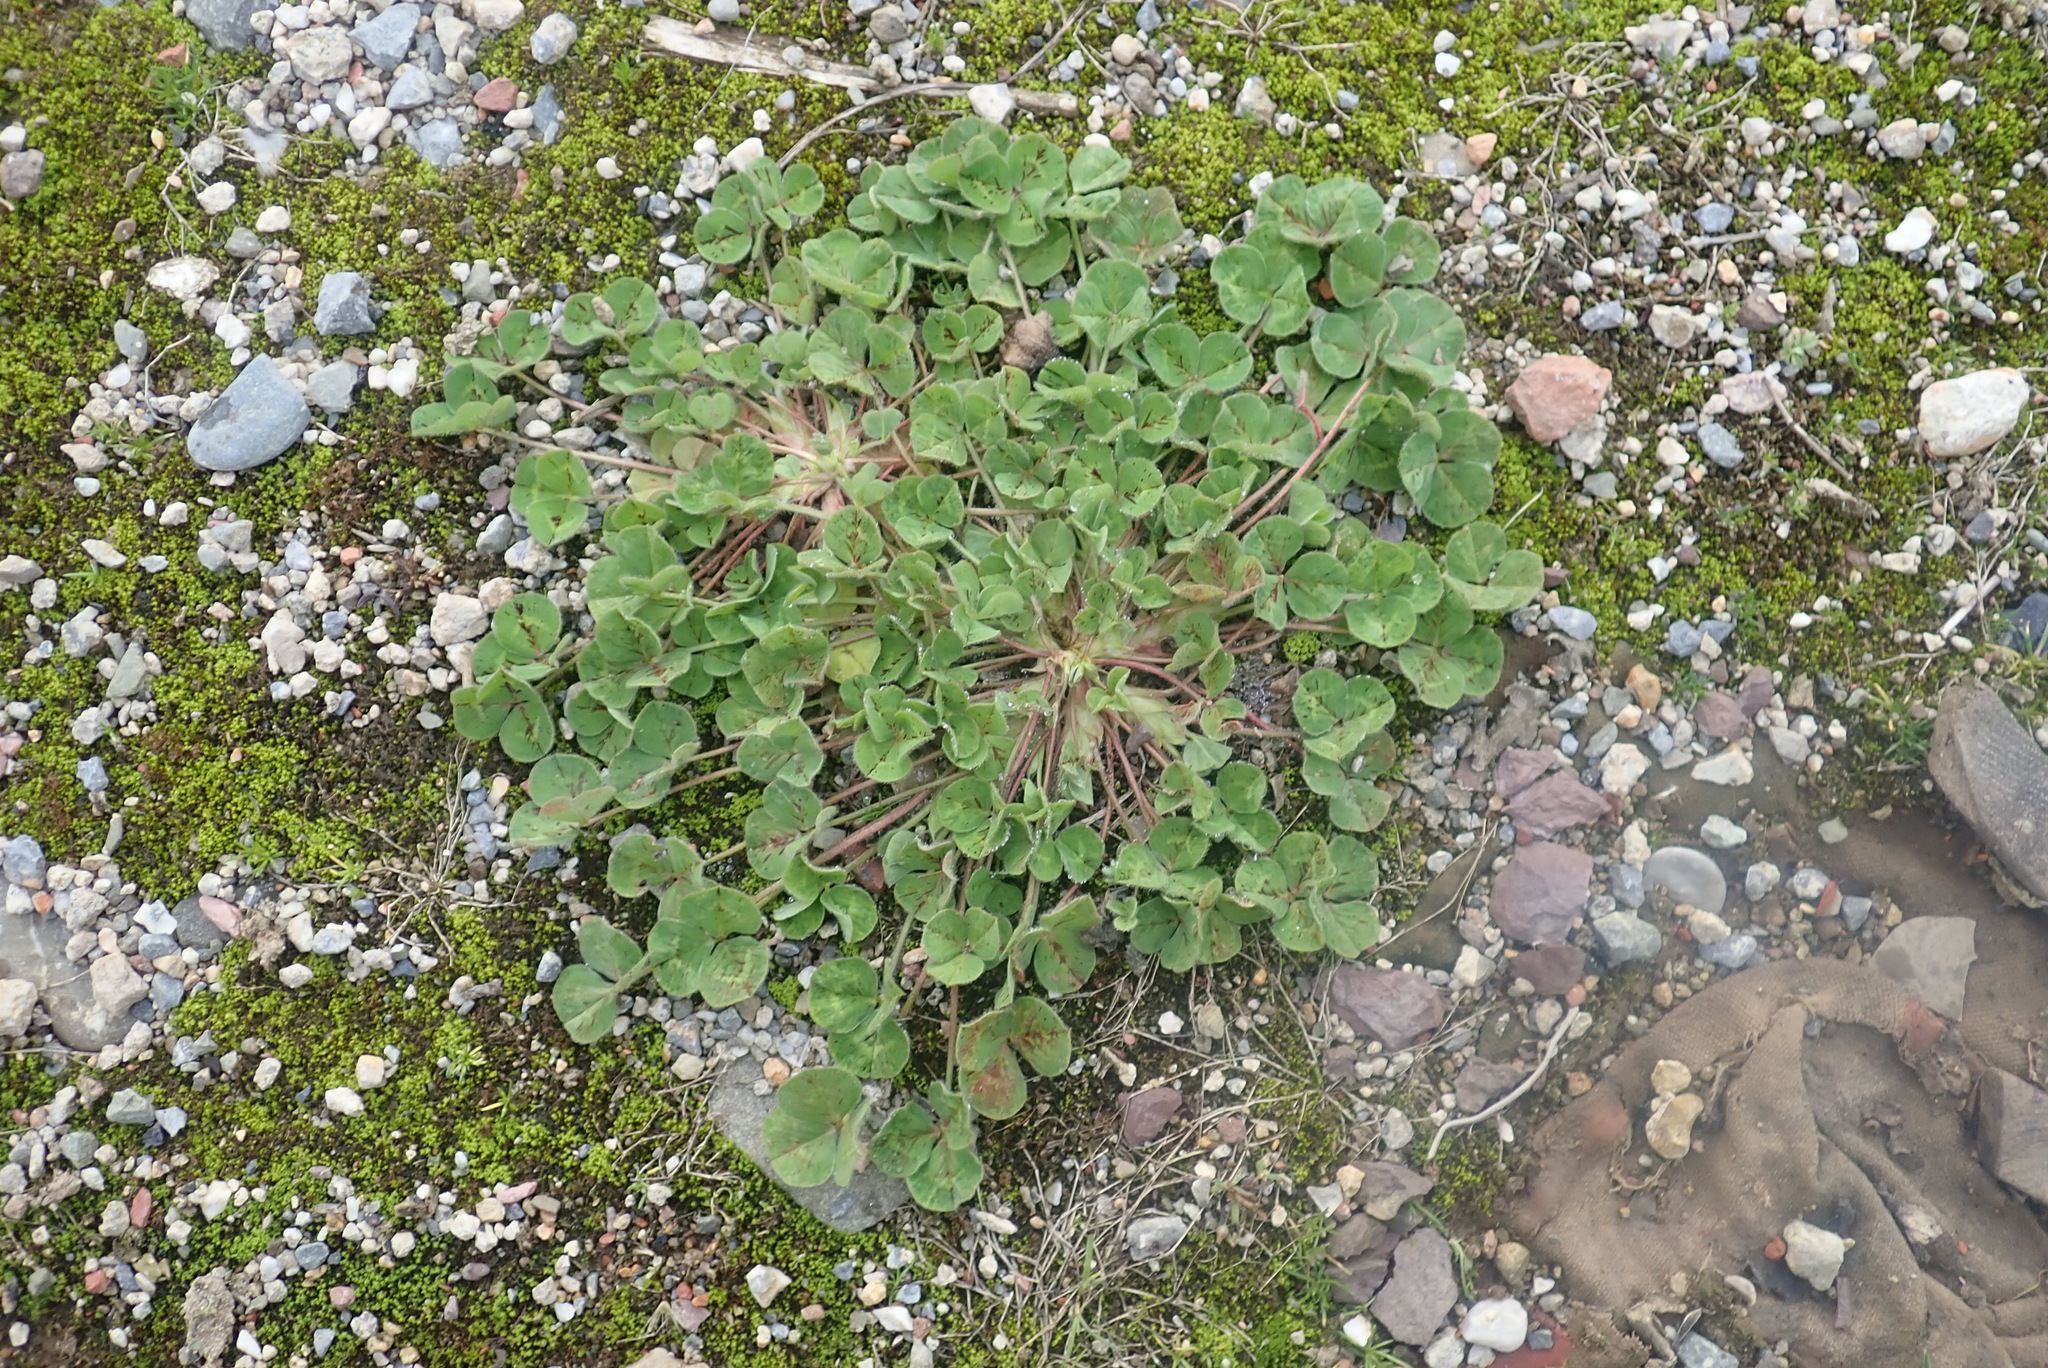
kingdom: Plantae
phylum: Tracheophyta
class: Magnoliopsida
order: Fabales
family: Fabaceae
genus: Trifolium
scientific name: Trifolium subterraneum
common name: Subterranean clover
